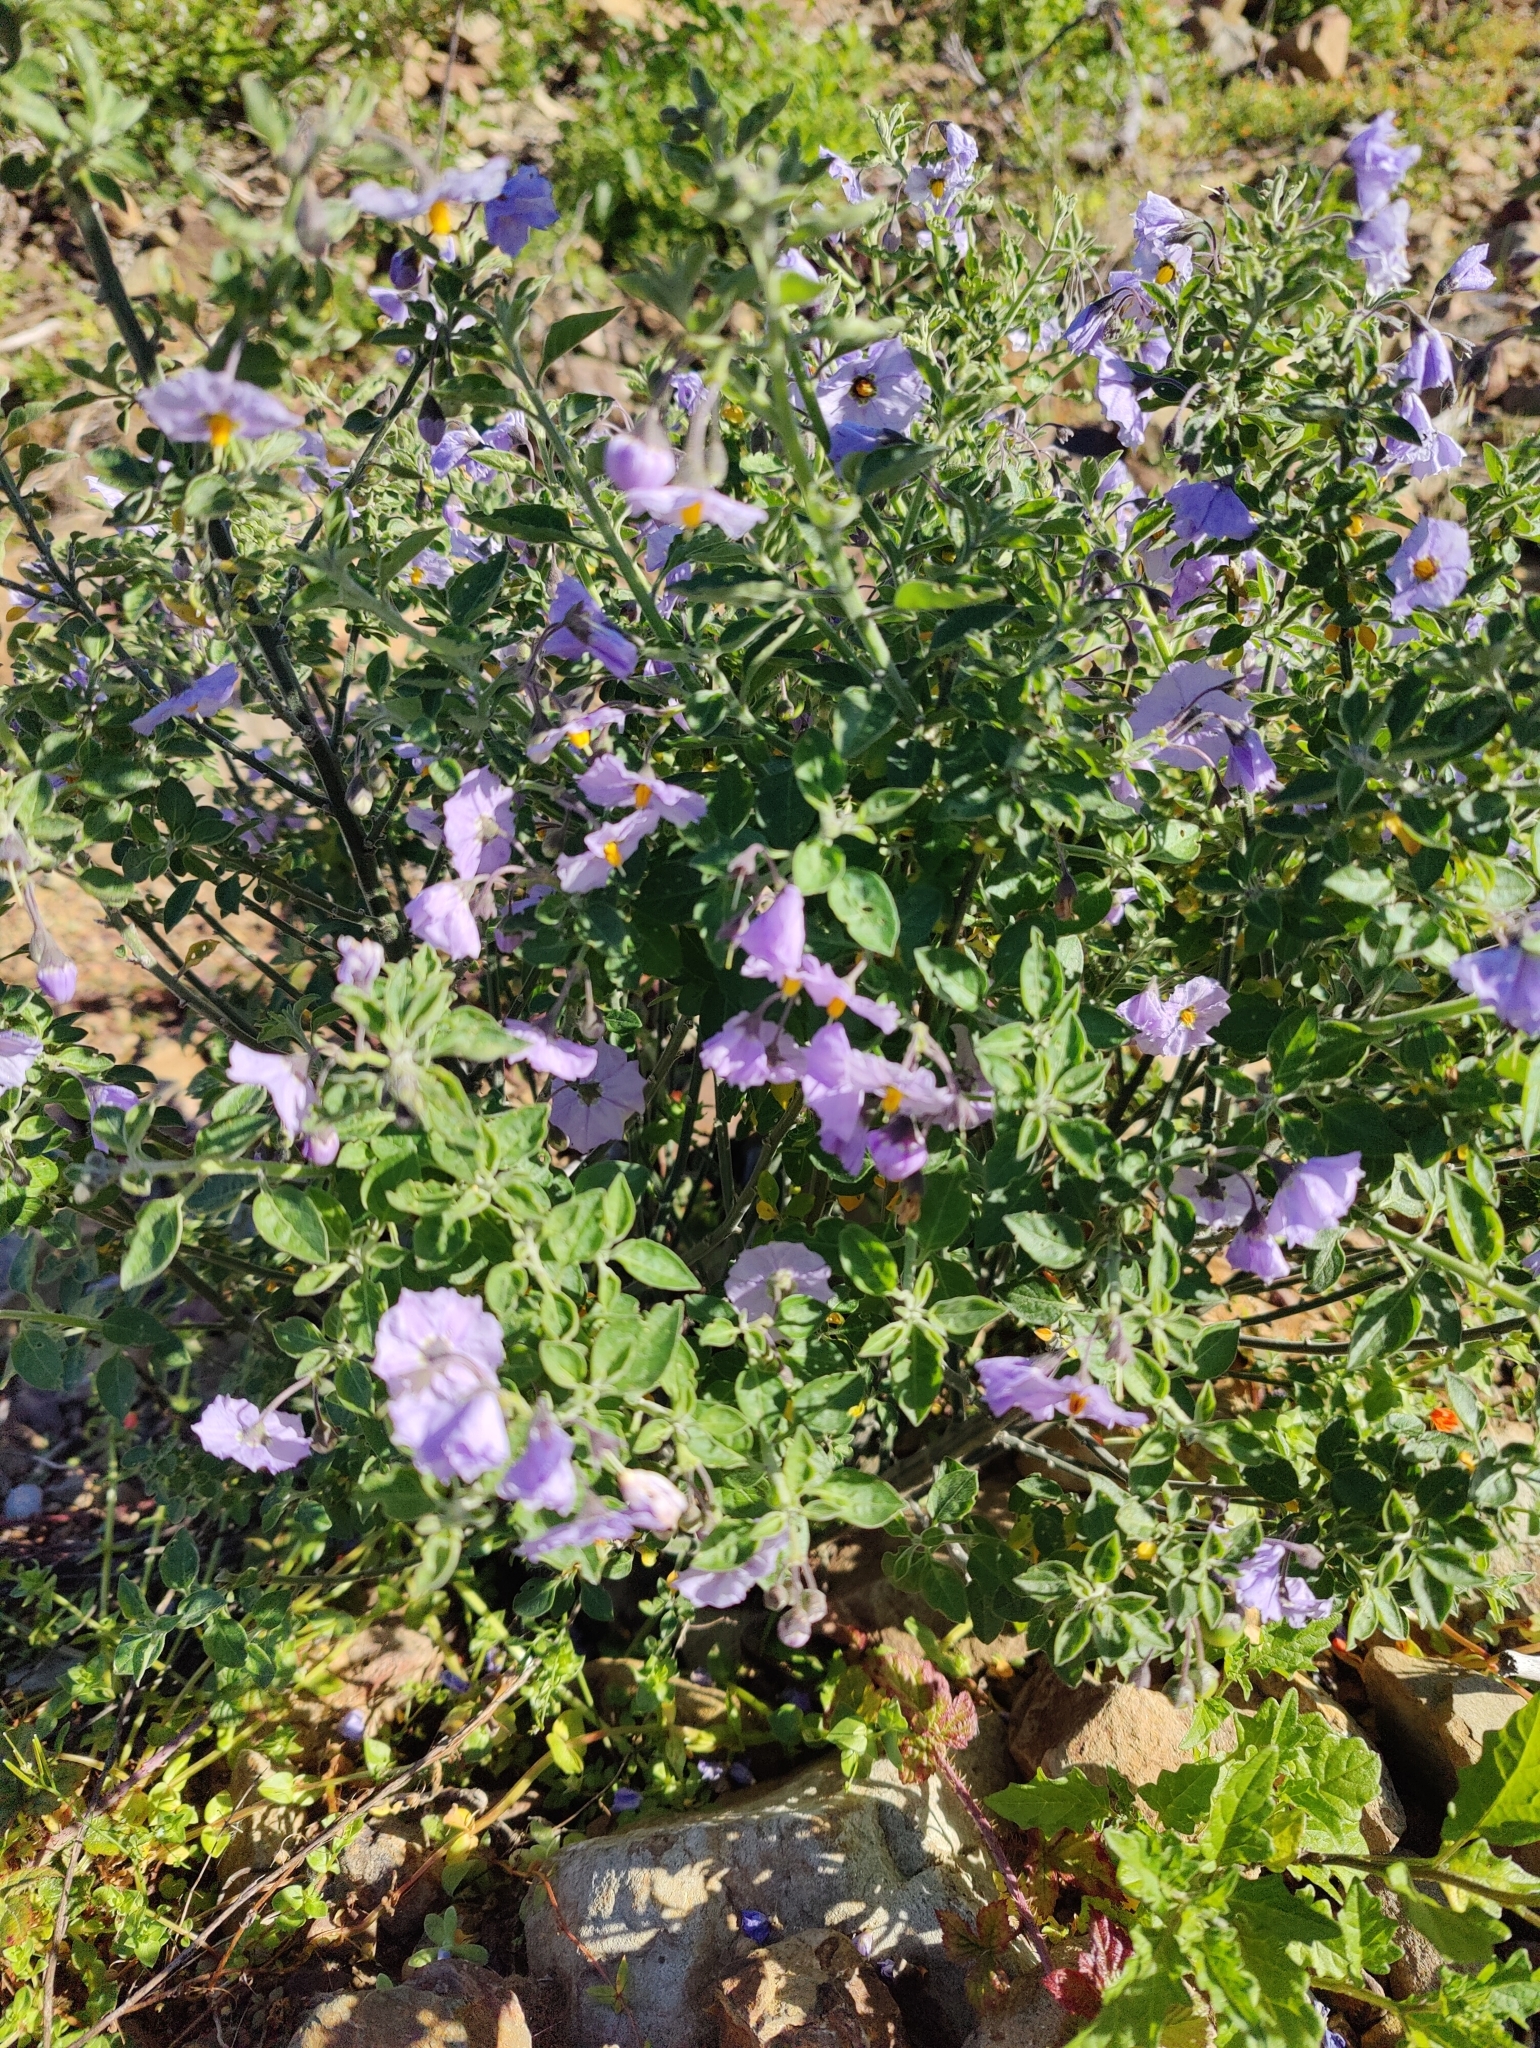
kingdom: Plantae
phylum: Tracheophyta
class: Magnoliopsida
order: Solanales
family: Solanaceae
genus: Solanum
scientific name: Solanum umbelliferum
